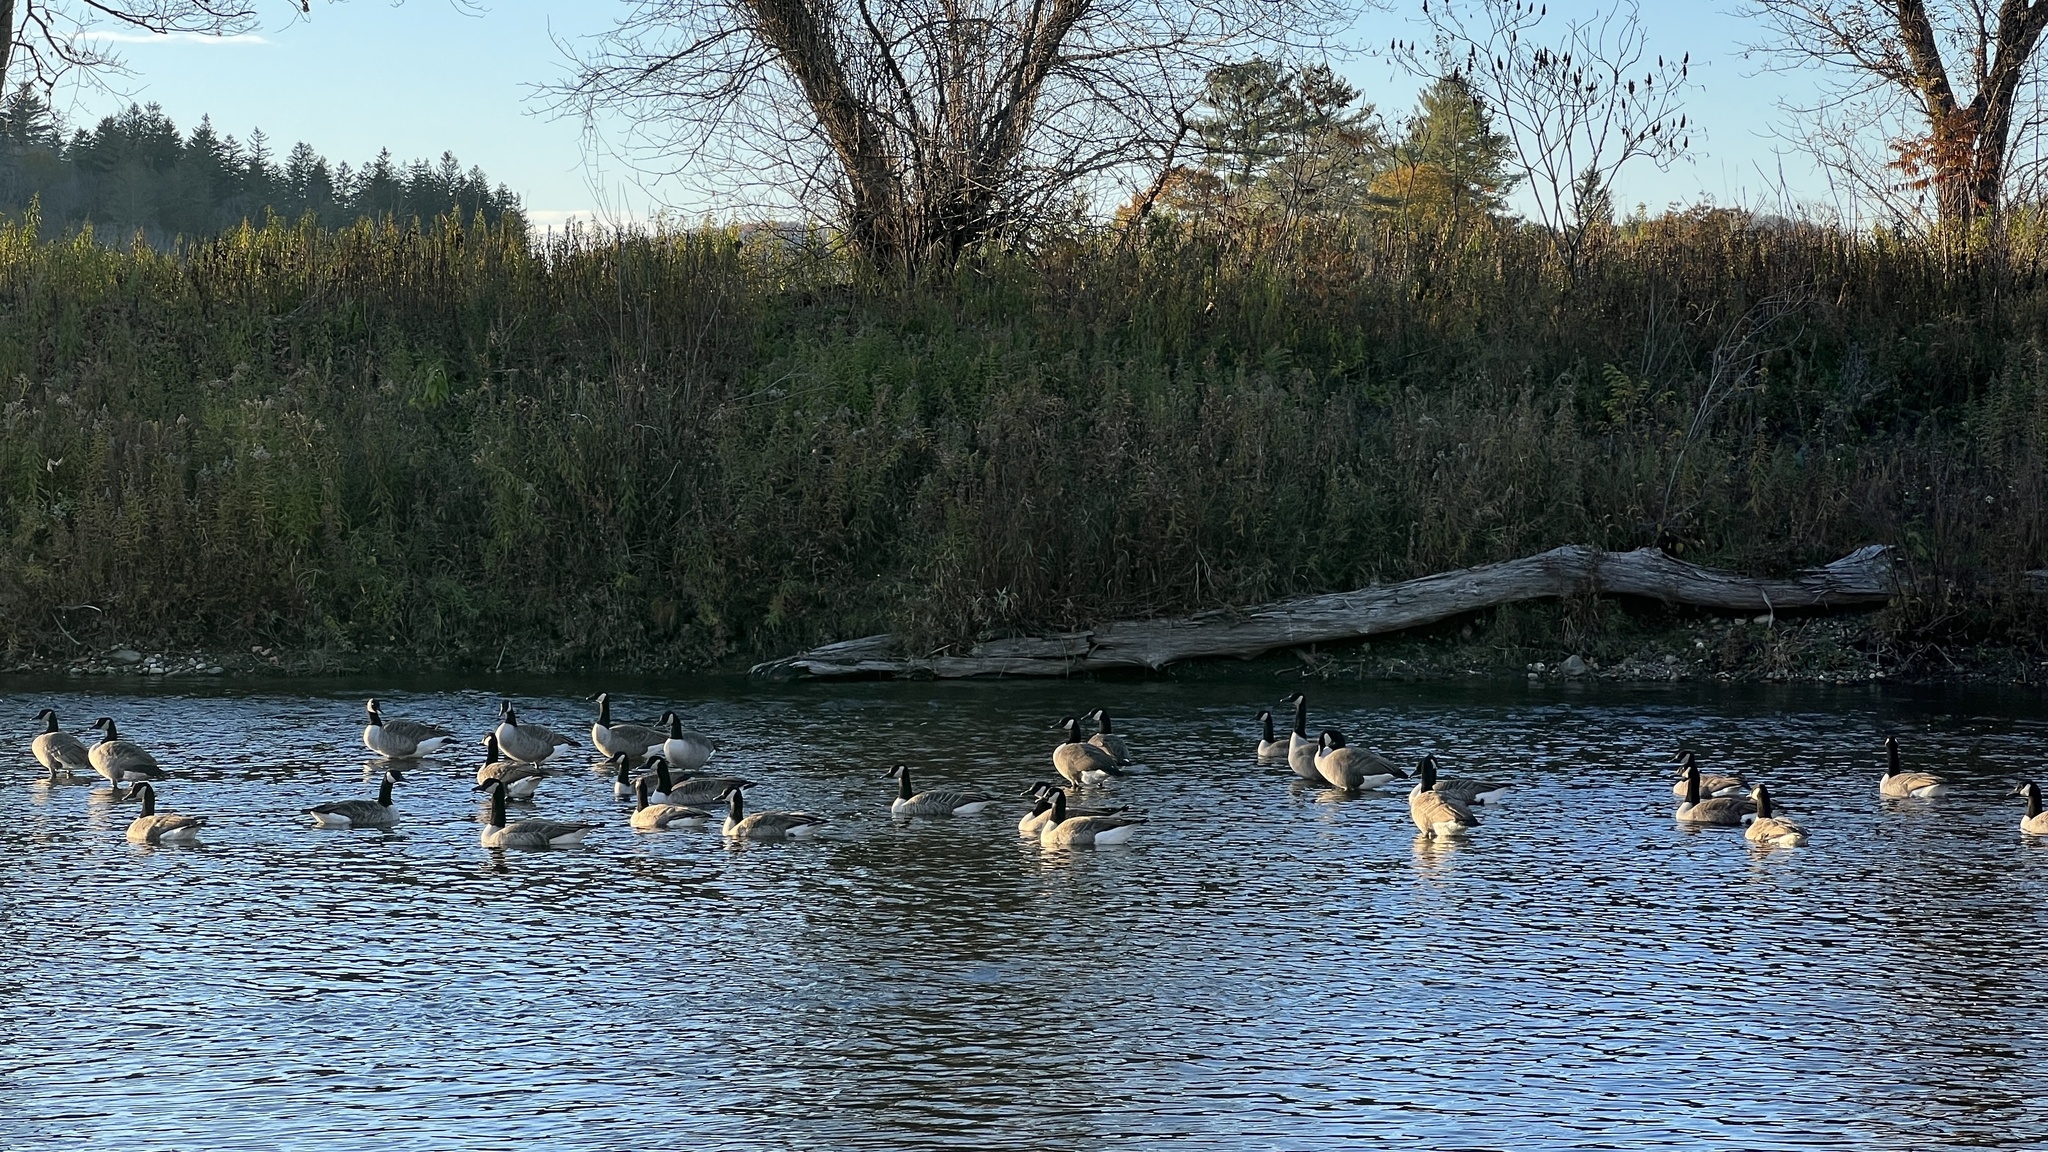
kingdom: Animalia
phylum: Chordata
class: Aves
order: Anseriformes
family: Anatidae
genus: Branta
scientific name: Branta canadensis
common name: Canada goose
